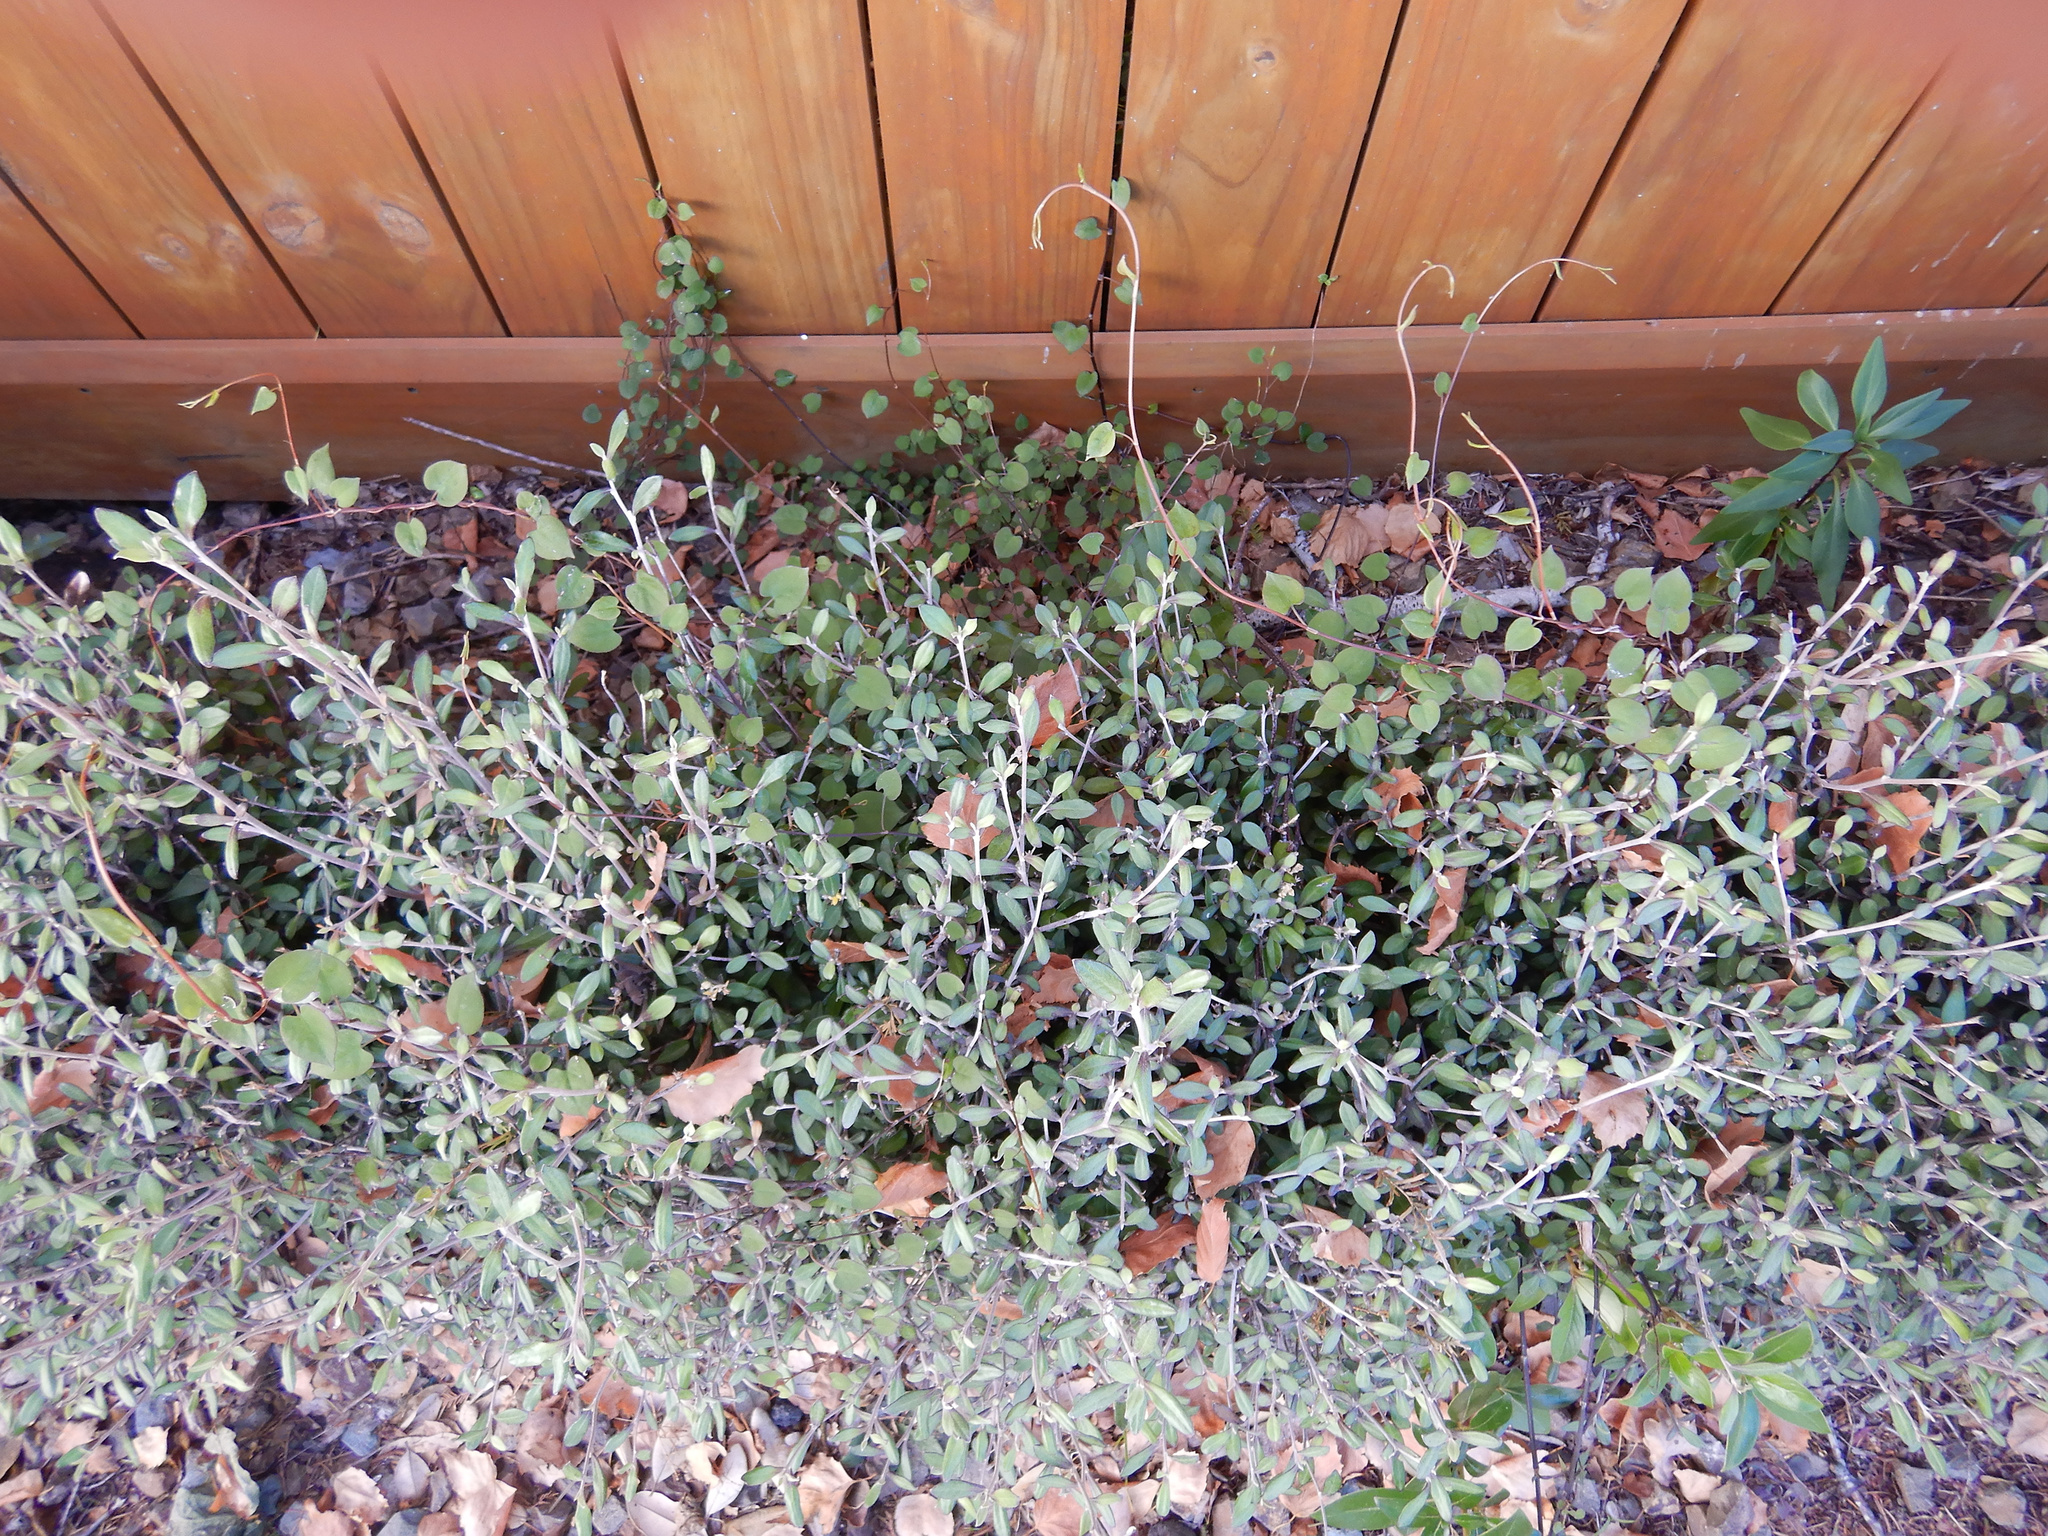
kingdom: Plantae
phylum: Tracheophyta
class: Magnoliopsida
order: Caryophyllales
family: Polygonaceae
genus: Muehlenbeckia
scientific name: Muehlenbeckia australis
